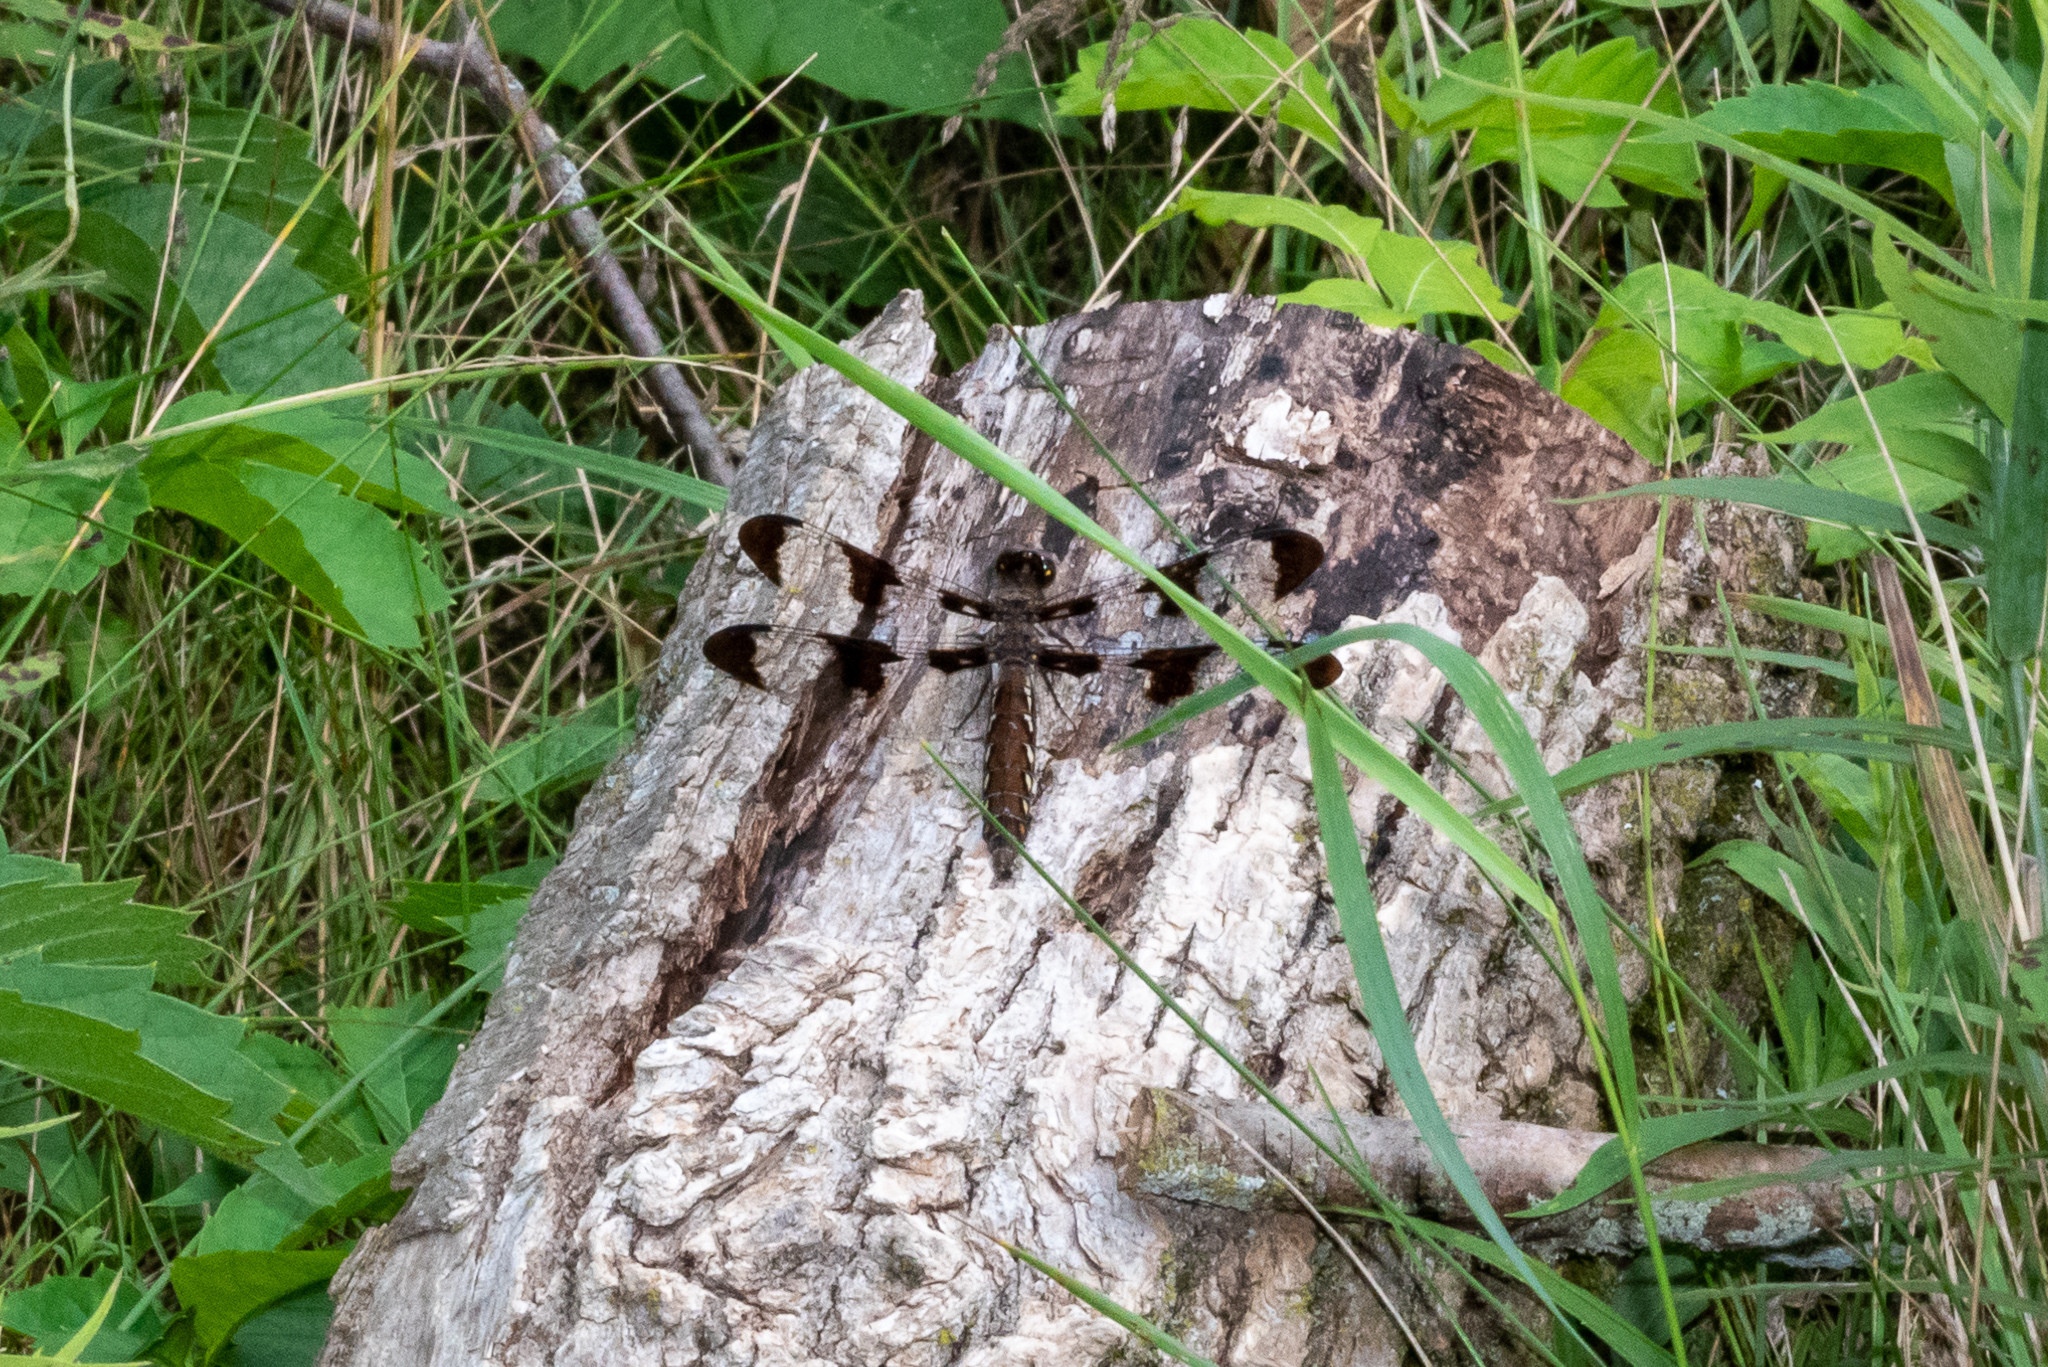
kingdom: Animalia
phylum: Arthropoda
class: Insecta
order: Odonata
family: Libellulidae
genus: Plathemis
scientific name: Plathemis lydia
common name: Common whitetail
